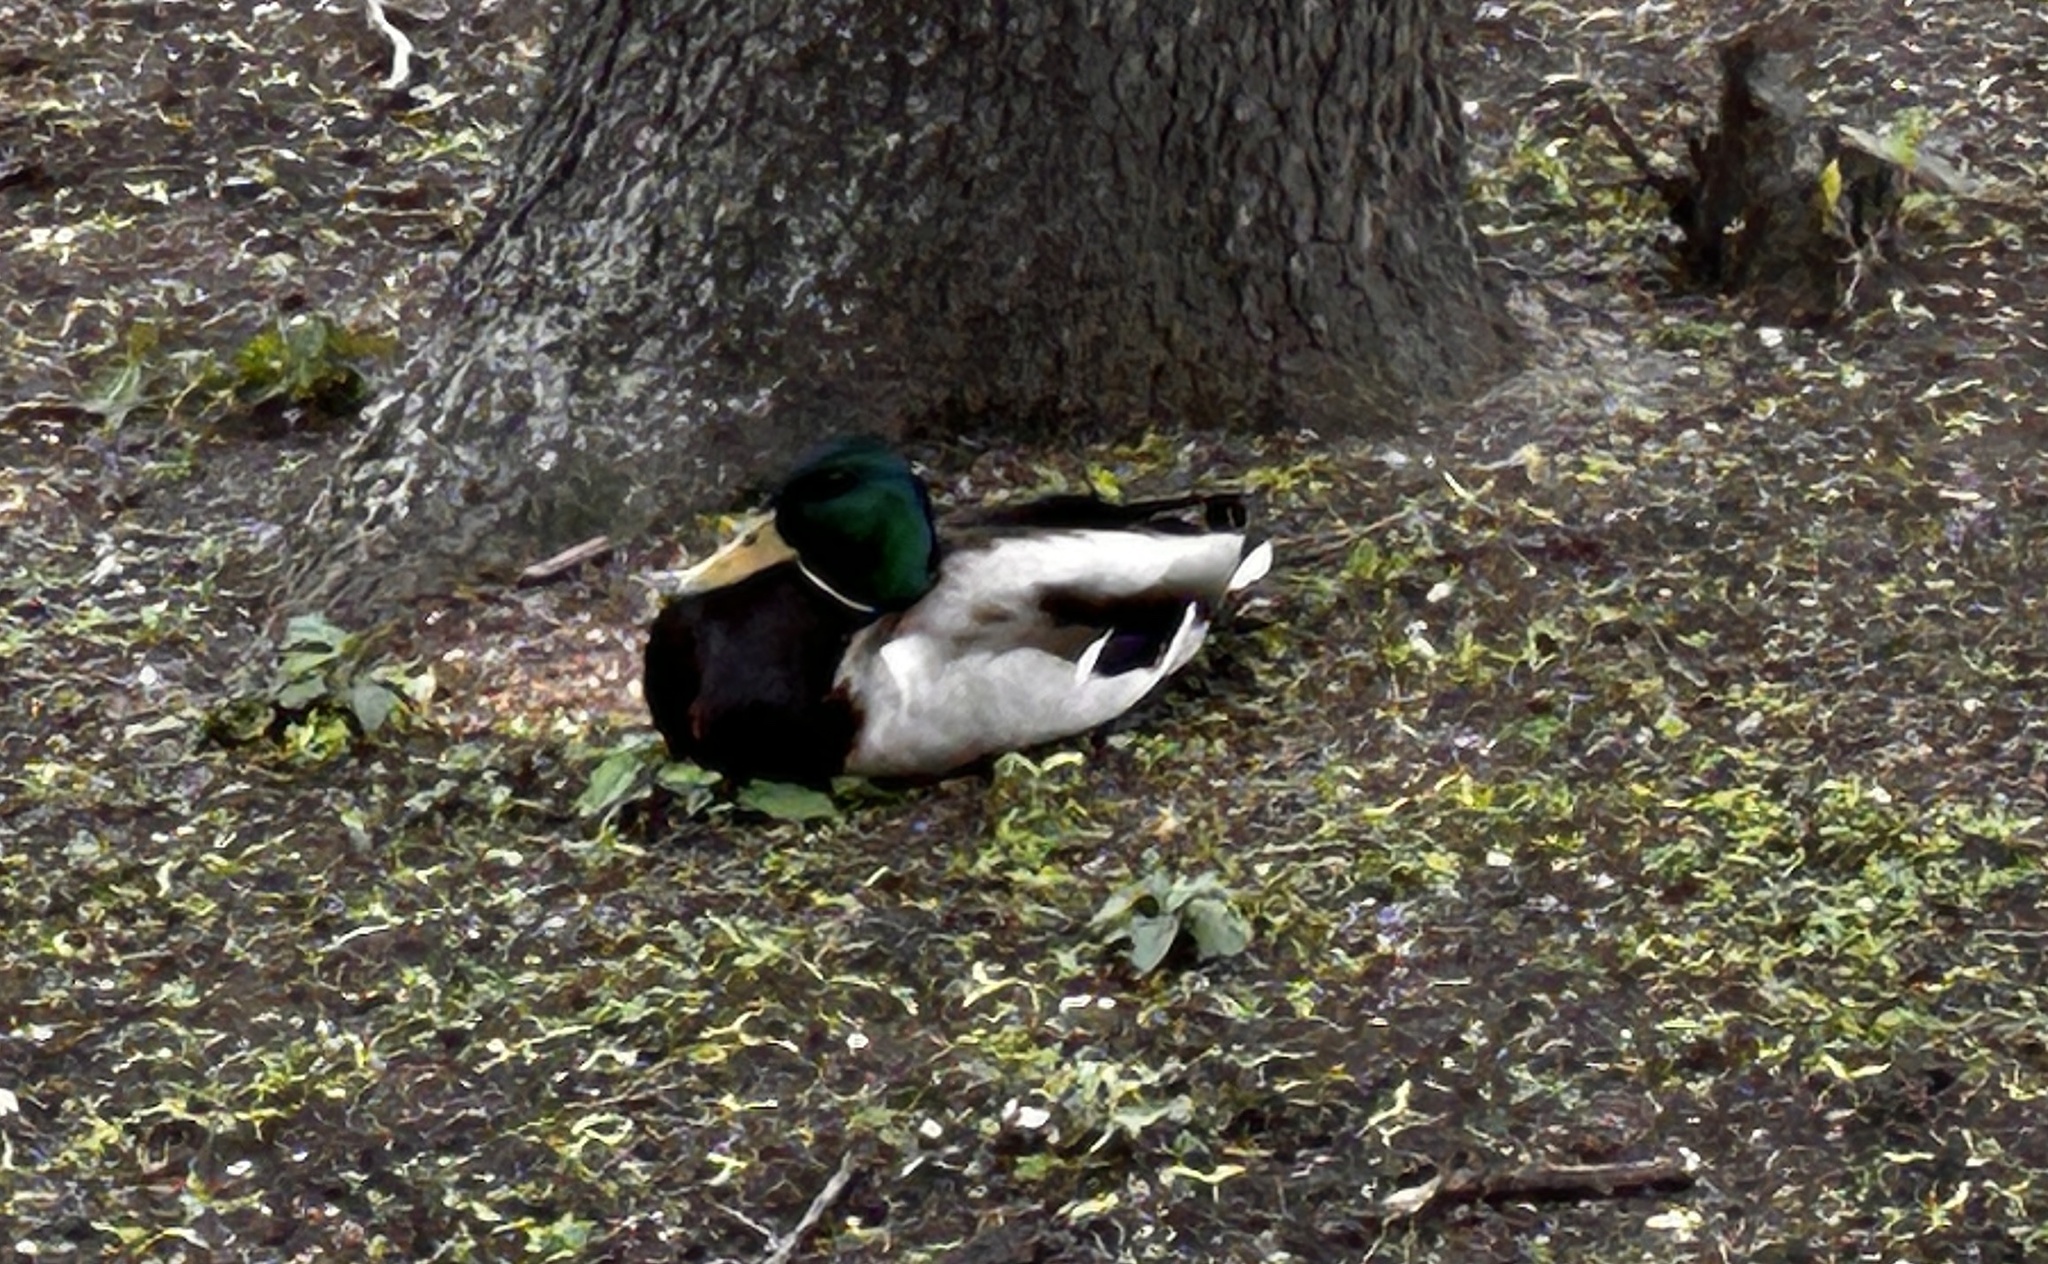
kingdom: Animalia
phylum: Chordata
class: Aves
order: Anseriformes
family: Anatidae
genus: Anas
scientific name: Anas platyrhynchos
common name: Mallard
